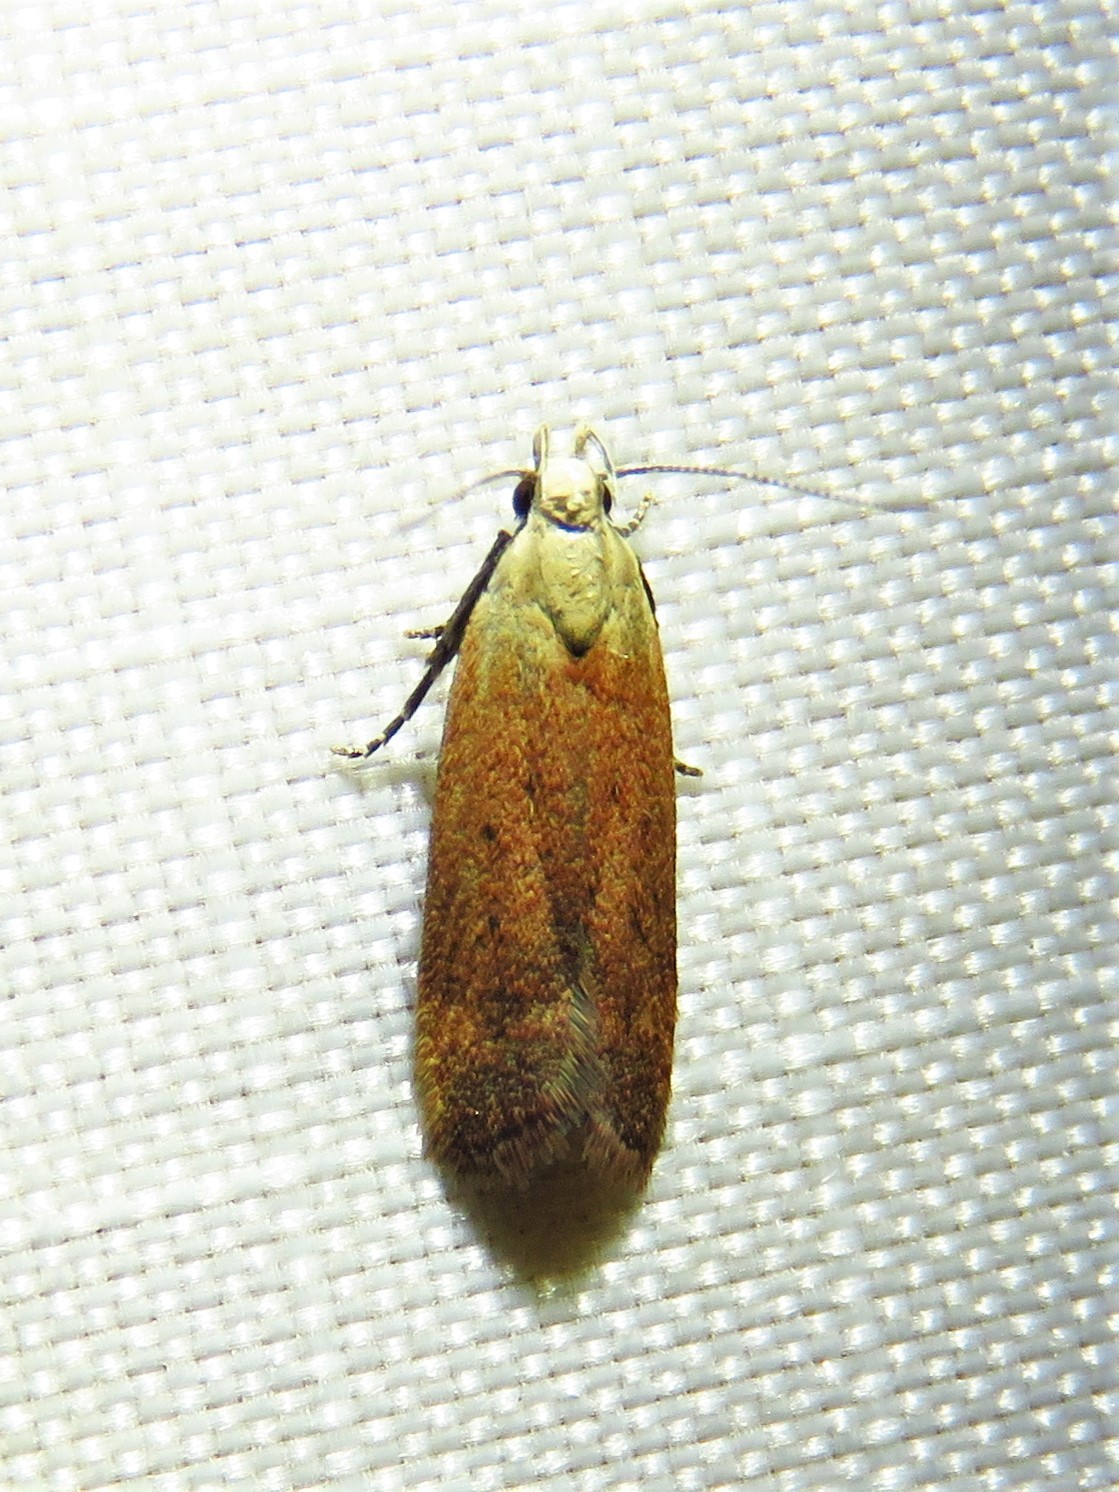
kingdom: Animalia
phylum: Arthropoda
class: Insecta
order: Lepidoptera
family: Gelechiidae
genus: Anacampsis
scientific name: Anacampsis fullonella
